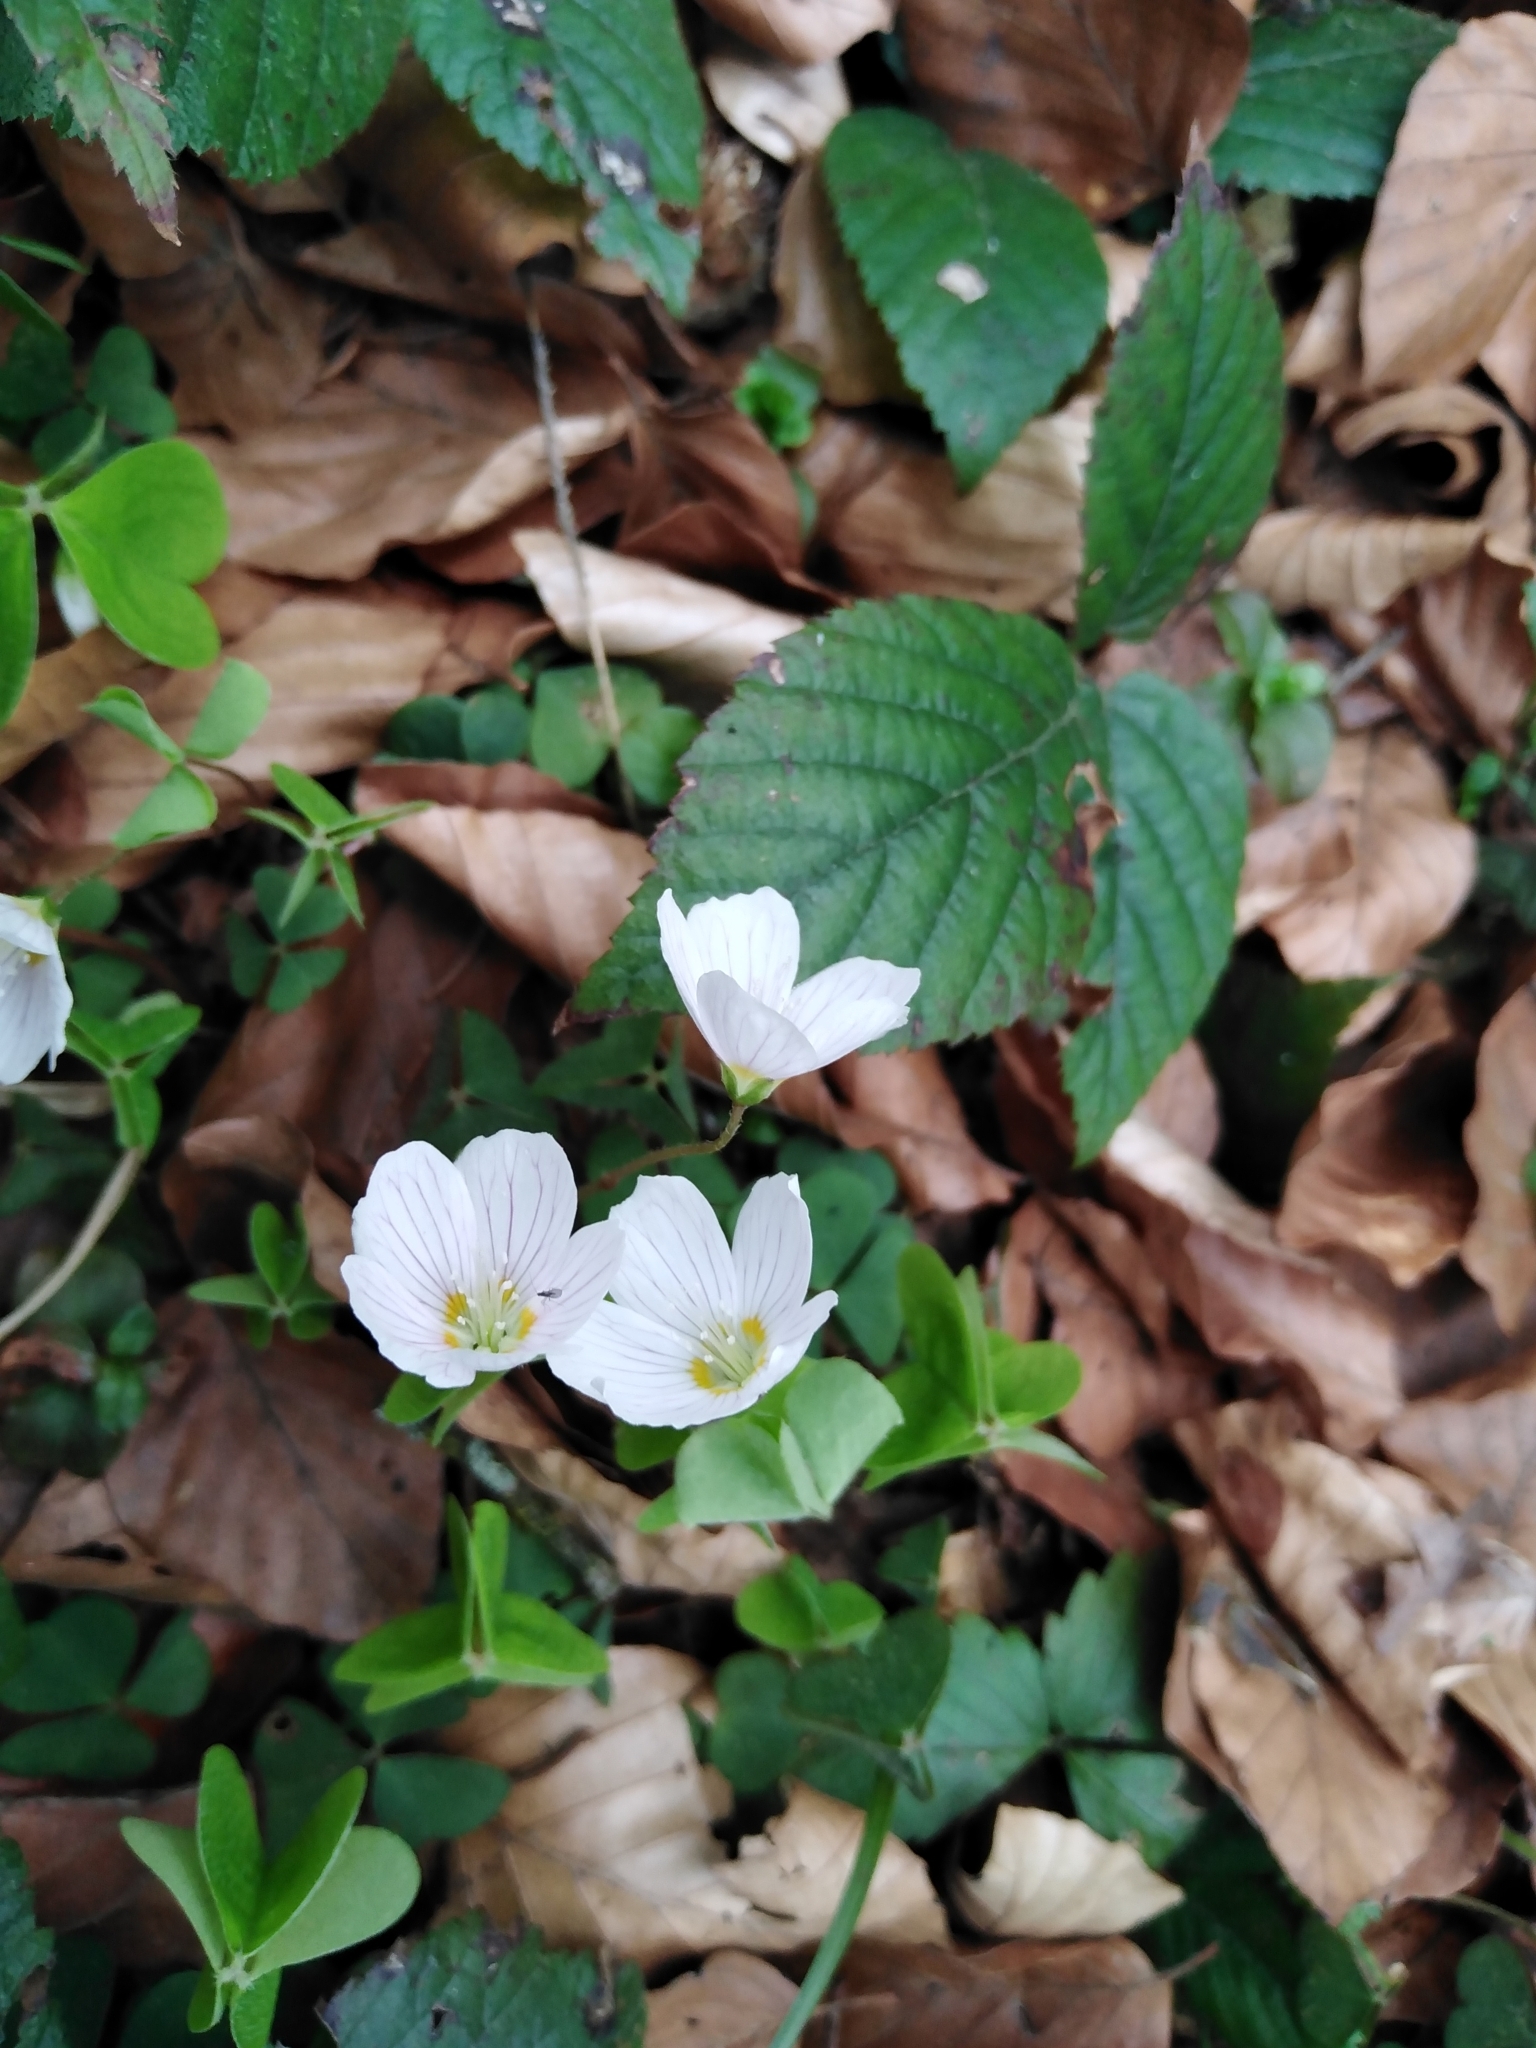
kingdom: Plantae
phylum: Tracheophyta
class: Magnoliopsida
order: Oxalidales
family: Oxalidaceae
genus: Oxalis
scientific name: Oxalis acetosella
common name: Wood-sorrel
